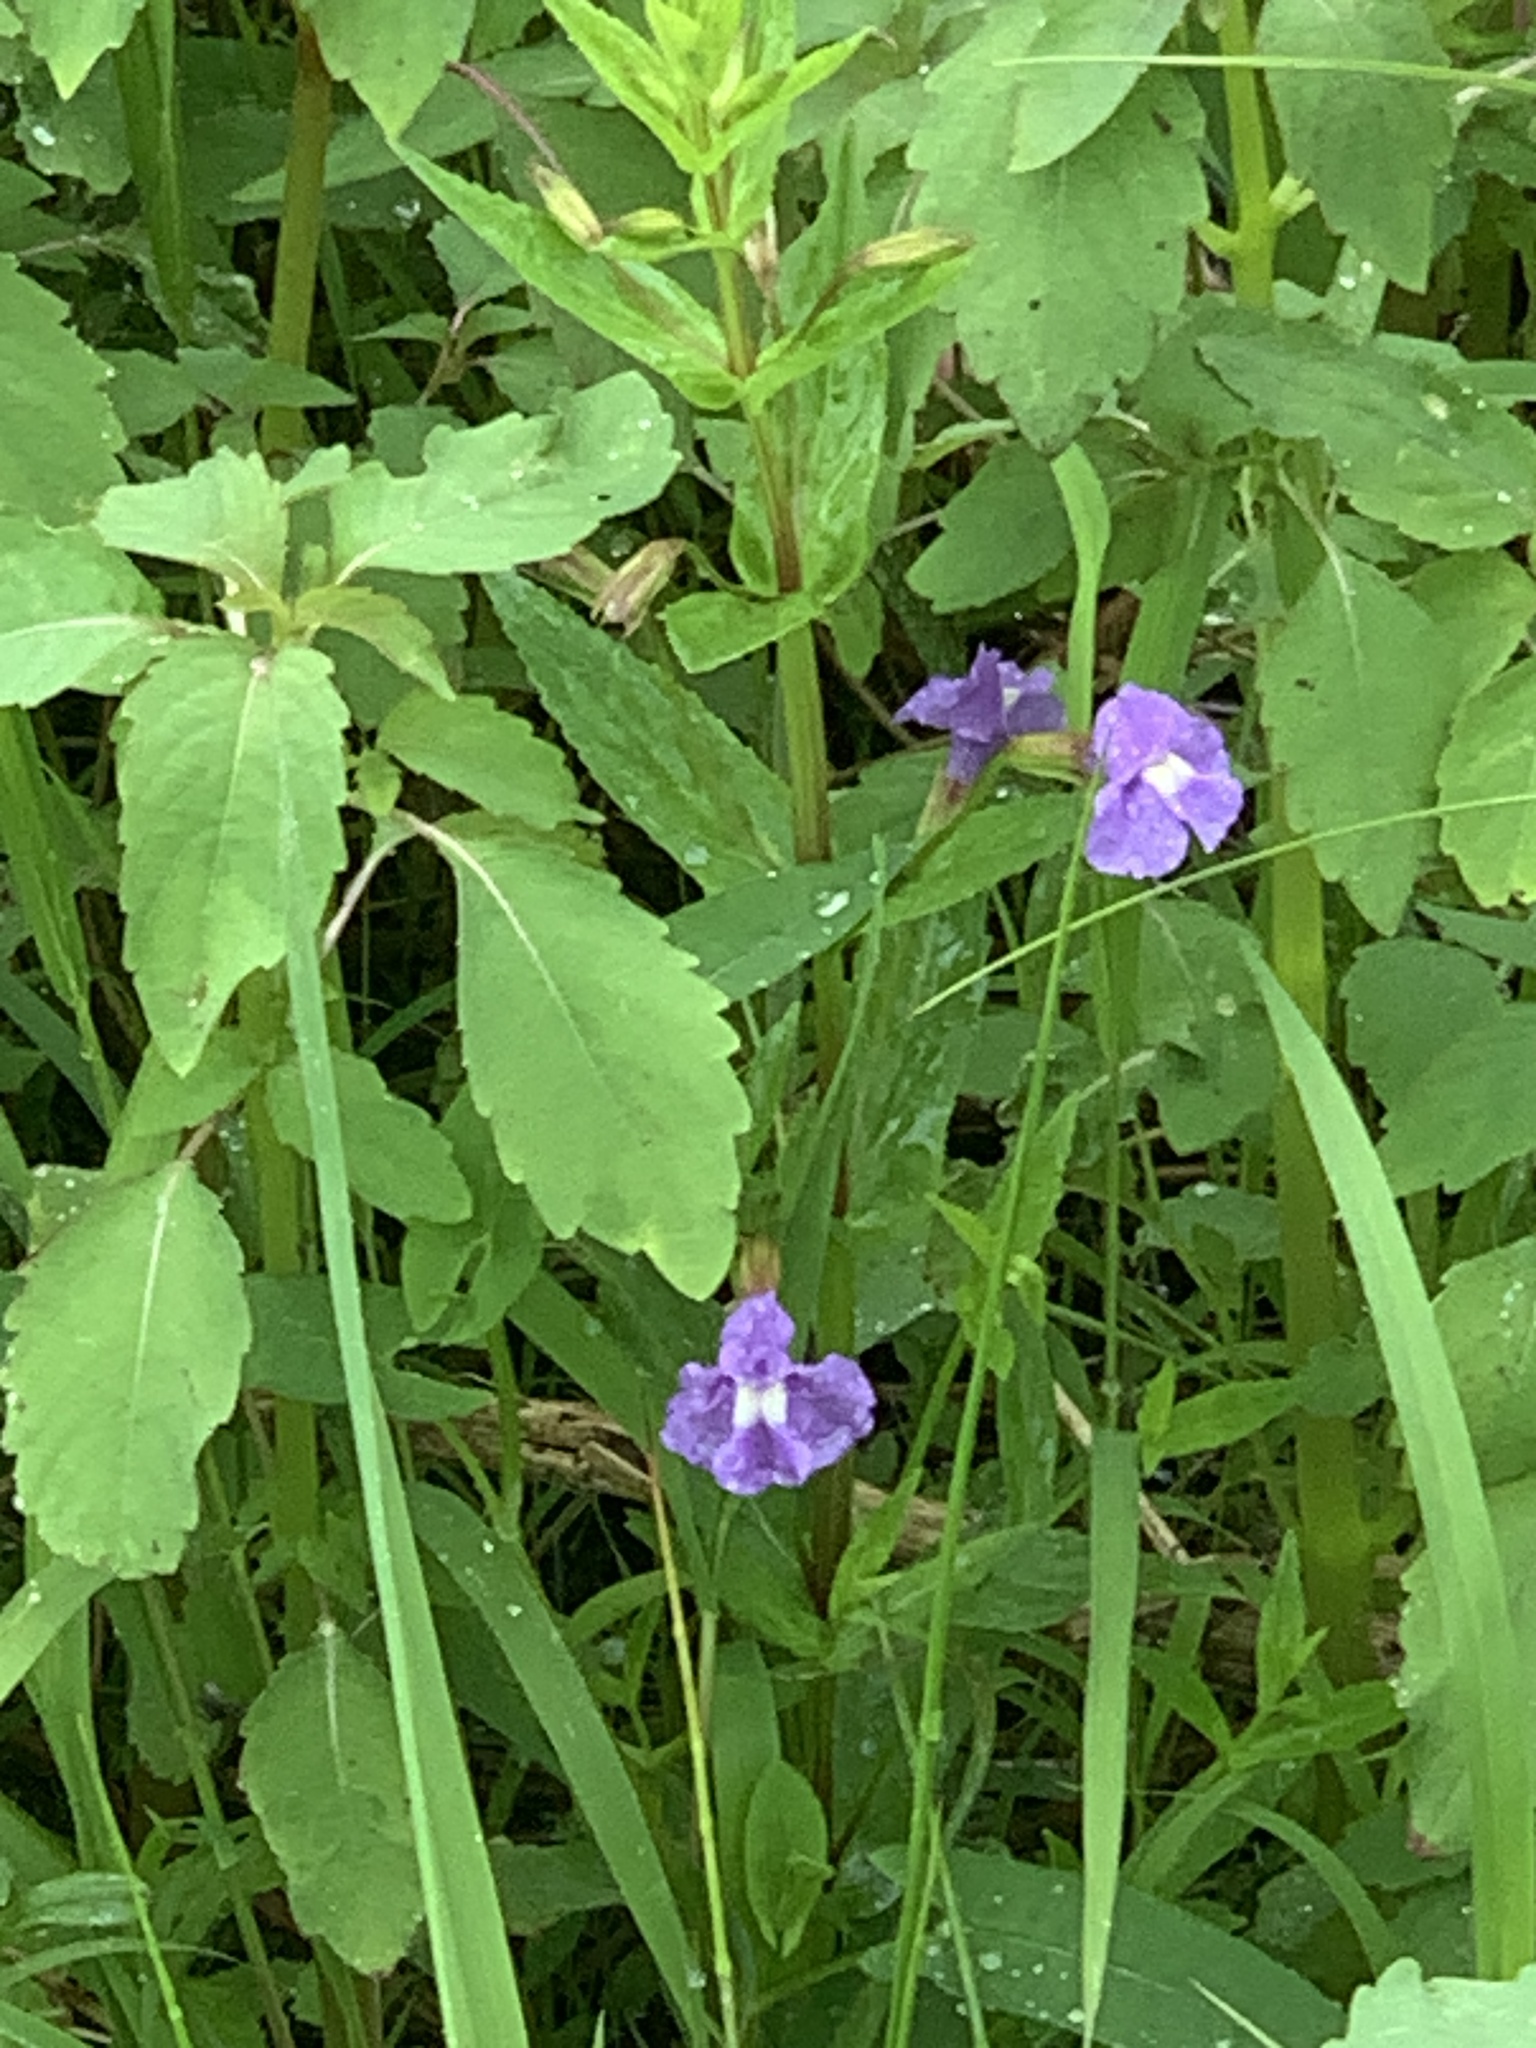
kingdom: Plantae
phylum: Tracheophyta
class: Magnoliopsida
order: Lamiales
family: Phrymaceae
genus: Mimulus
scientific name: Mimulus ringens
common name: Allegheny monkeyflower
